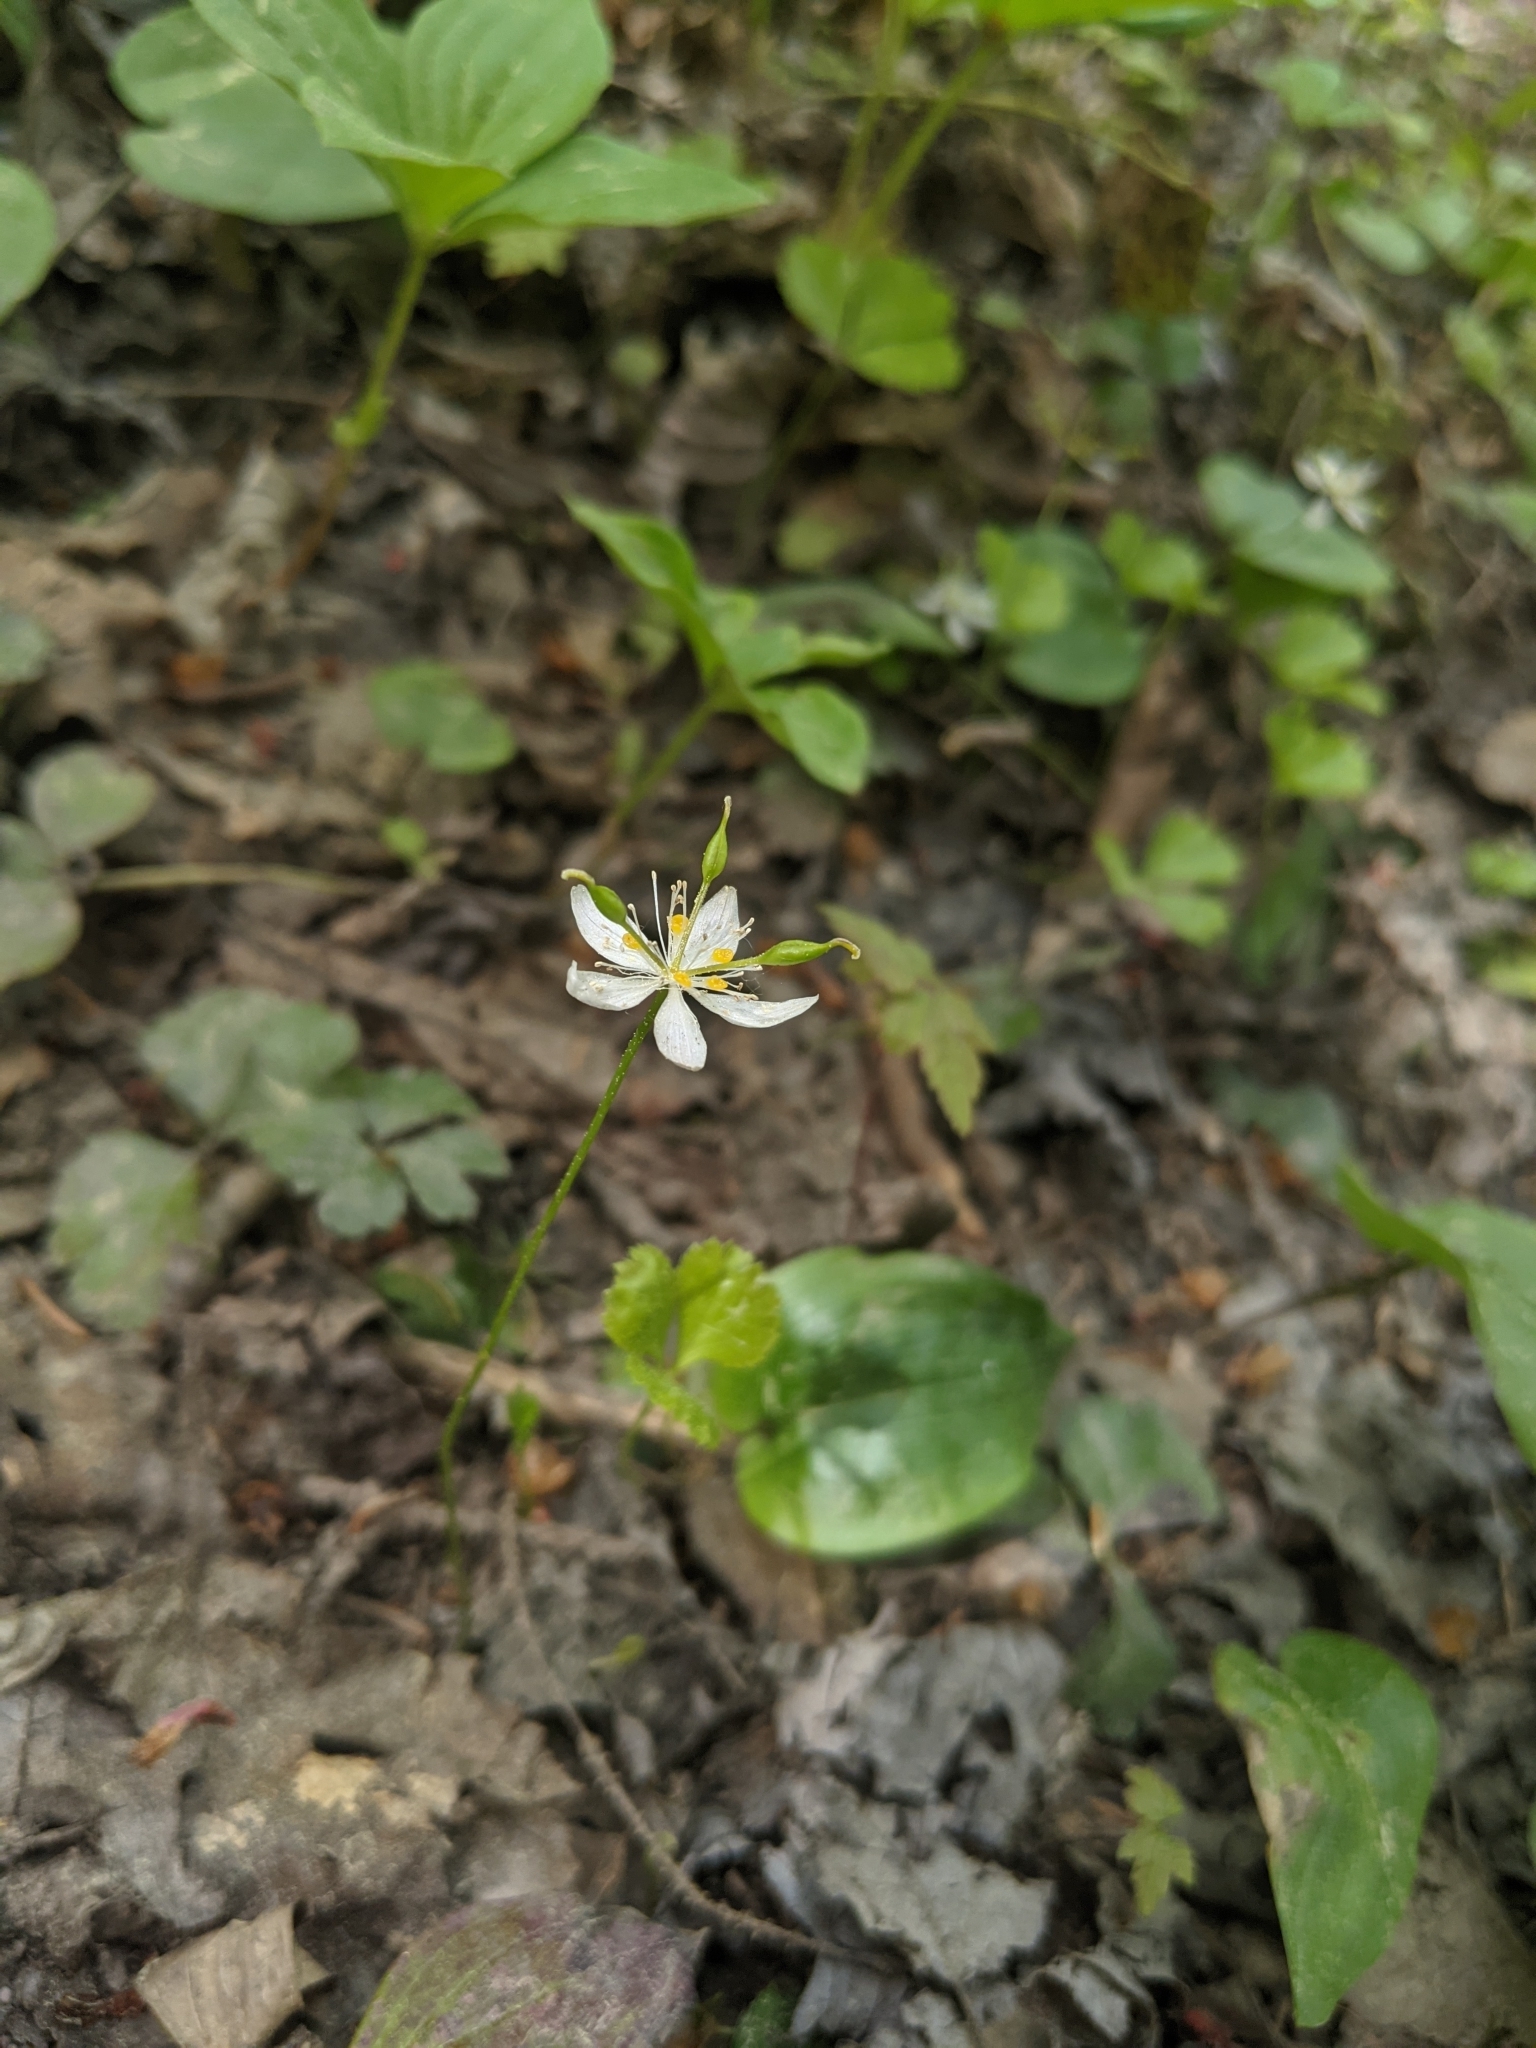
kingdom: Plantae
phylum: Tracheophyta
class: Magnoliopsida
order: Ranunculales
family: Ranunculaceae
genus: Coptis
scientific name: Coptis trifolia
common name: Canker-root
